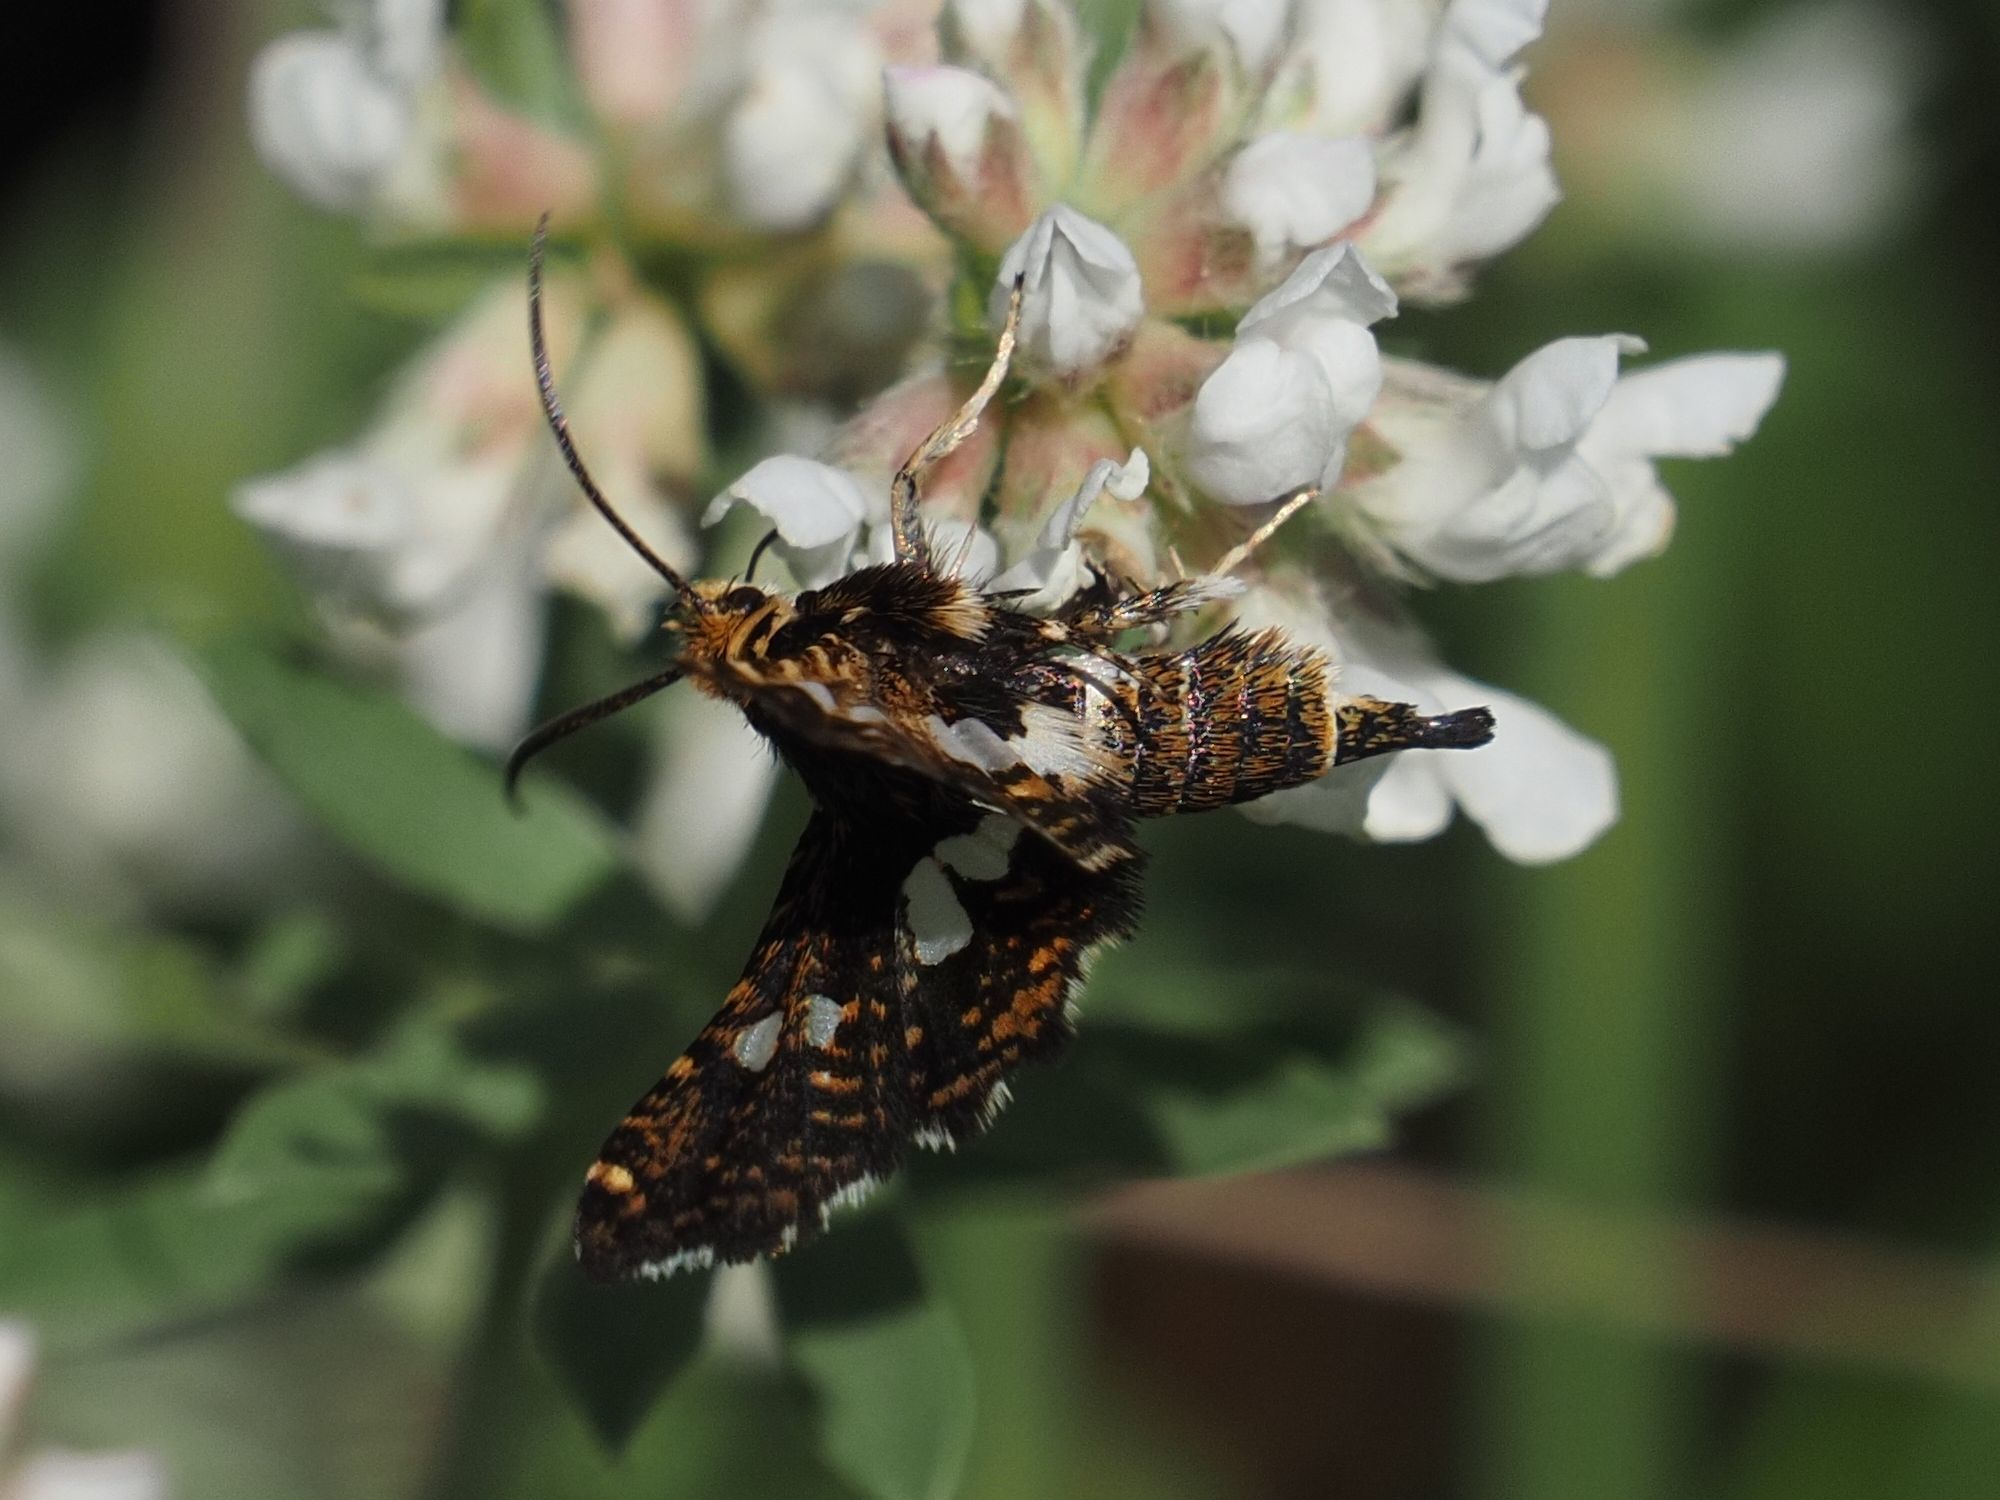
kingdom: Animalia
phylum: Arthropoda
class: Insecta
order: Lepidoptera
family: Thyrididae
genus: Thyris
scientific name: Thyris fenestrella
